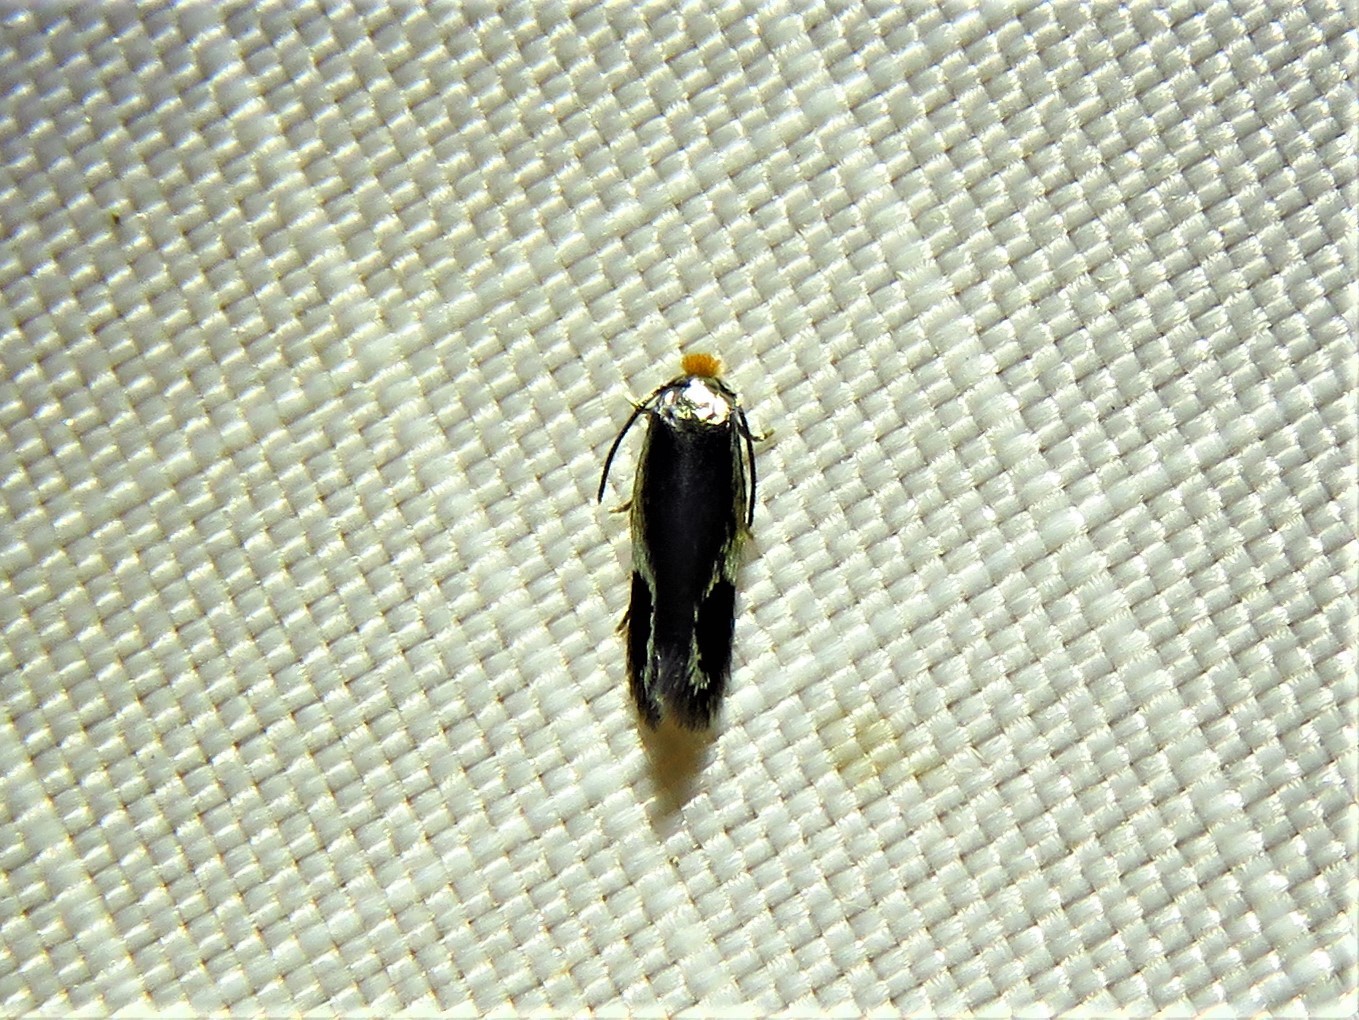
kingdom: Animalia
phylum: Arthropoda
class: Insecta
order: Lepidoptera
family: Nepticulidae
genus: Stigmella
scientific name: Stigmella resplendensella
